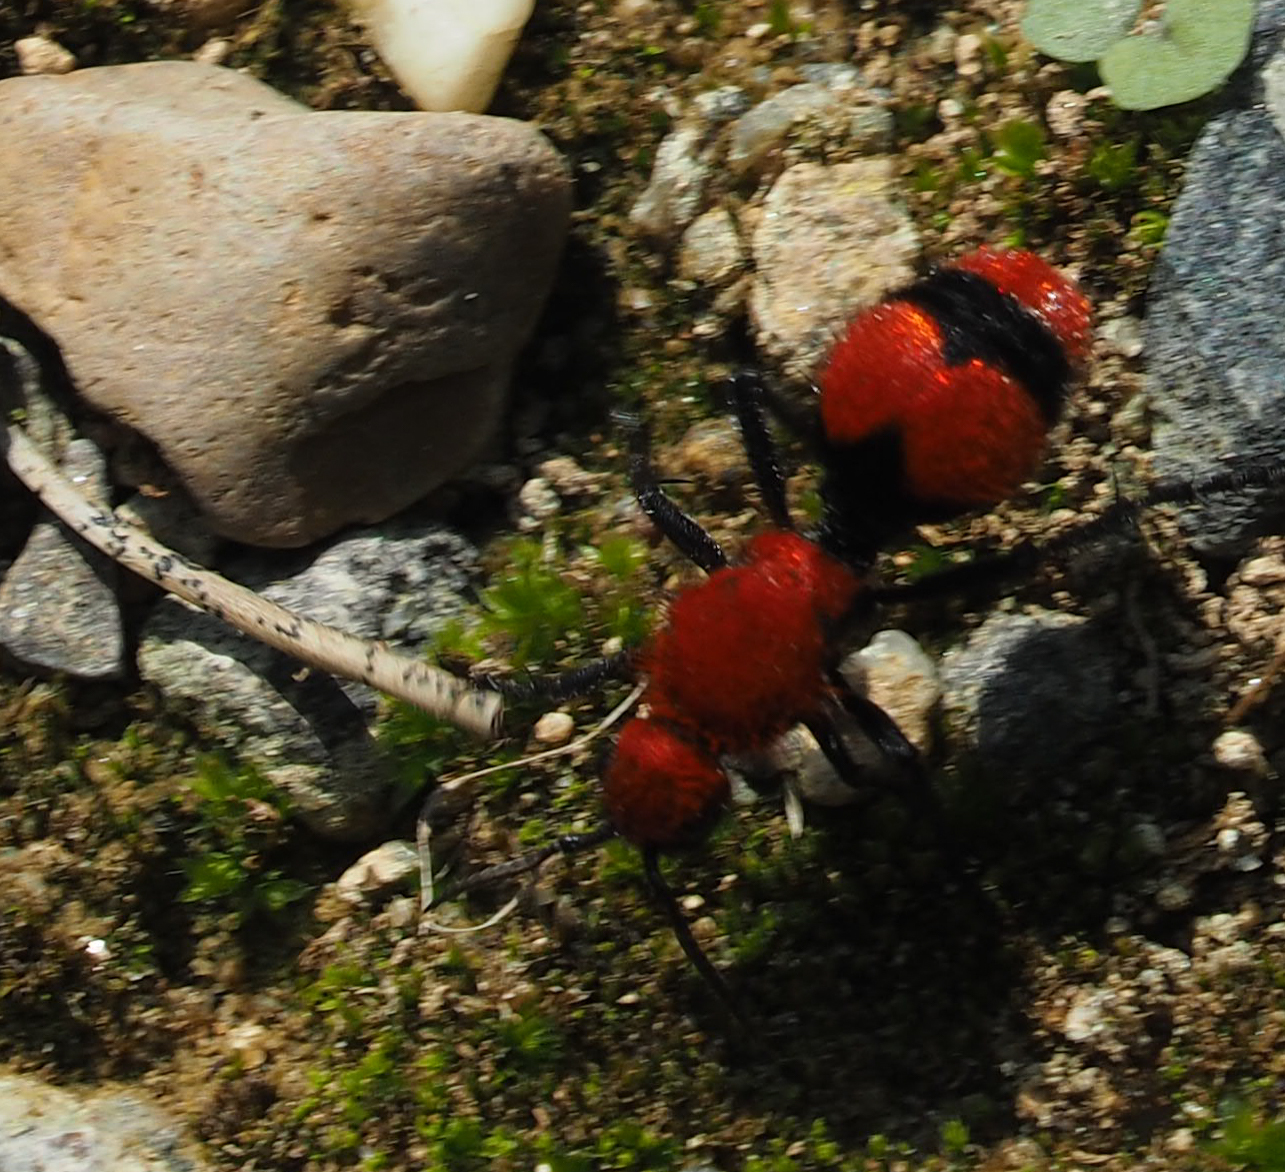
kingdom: Animalia
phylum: Arthropoda
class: Insecta
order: Hymenoptera
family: Mutillidae
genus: Dasymutilla
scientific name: Dasymutilla occidentalis
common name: Common eastern velvet ant
